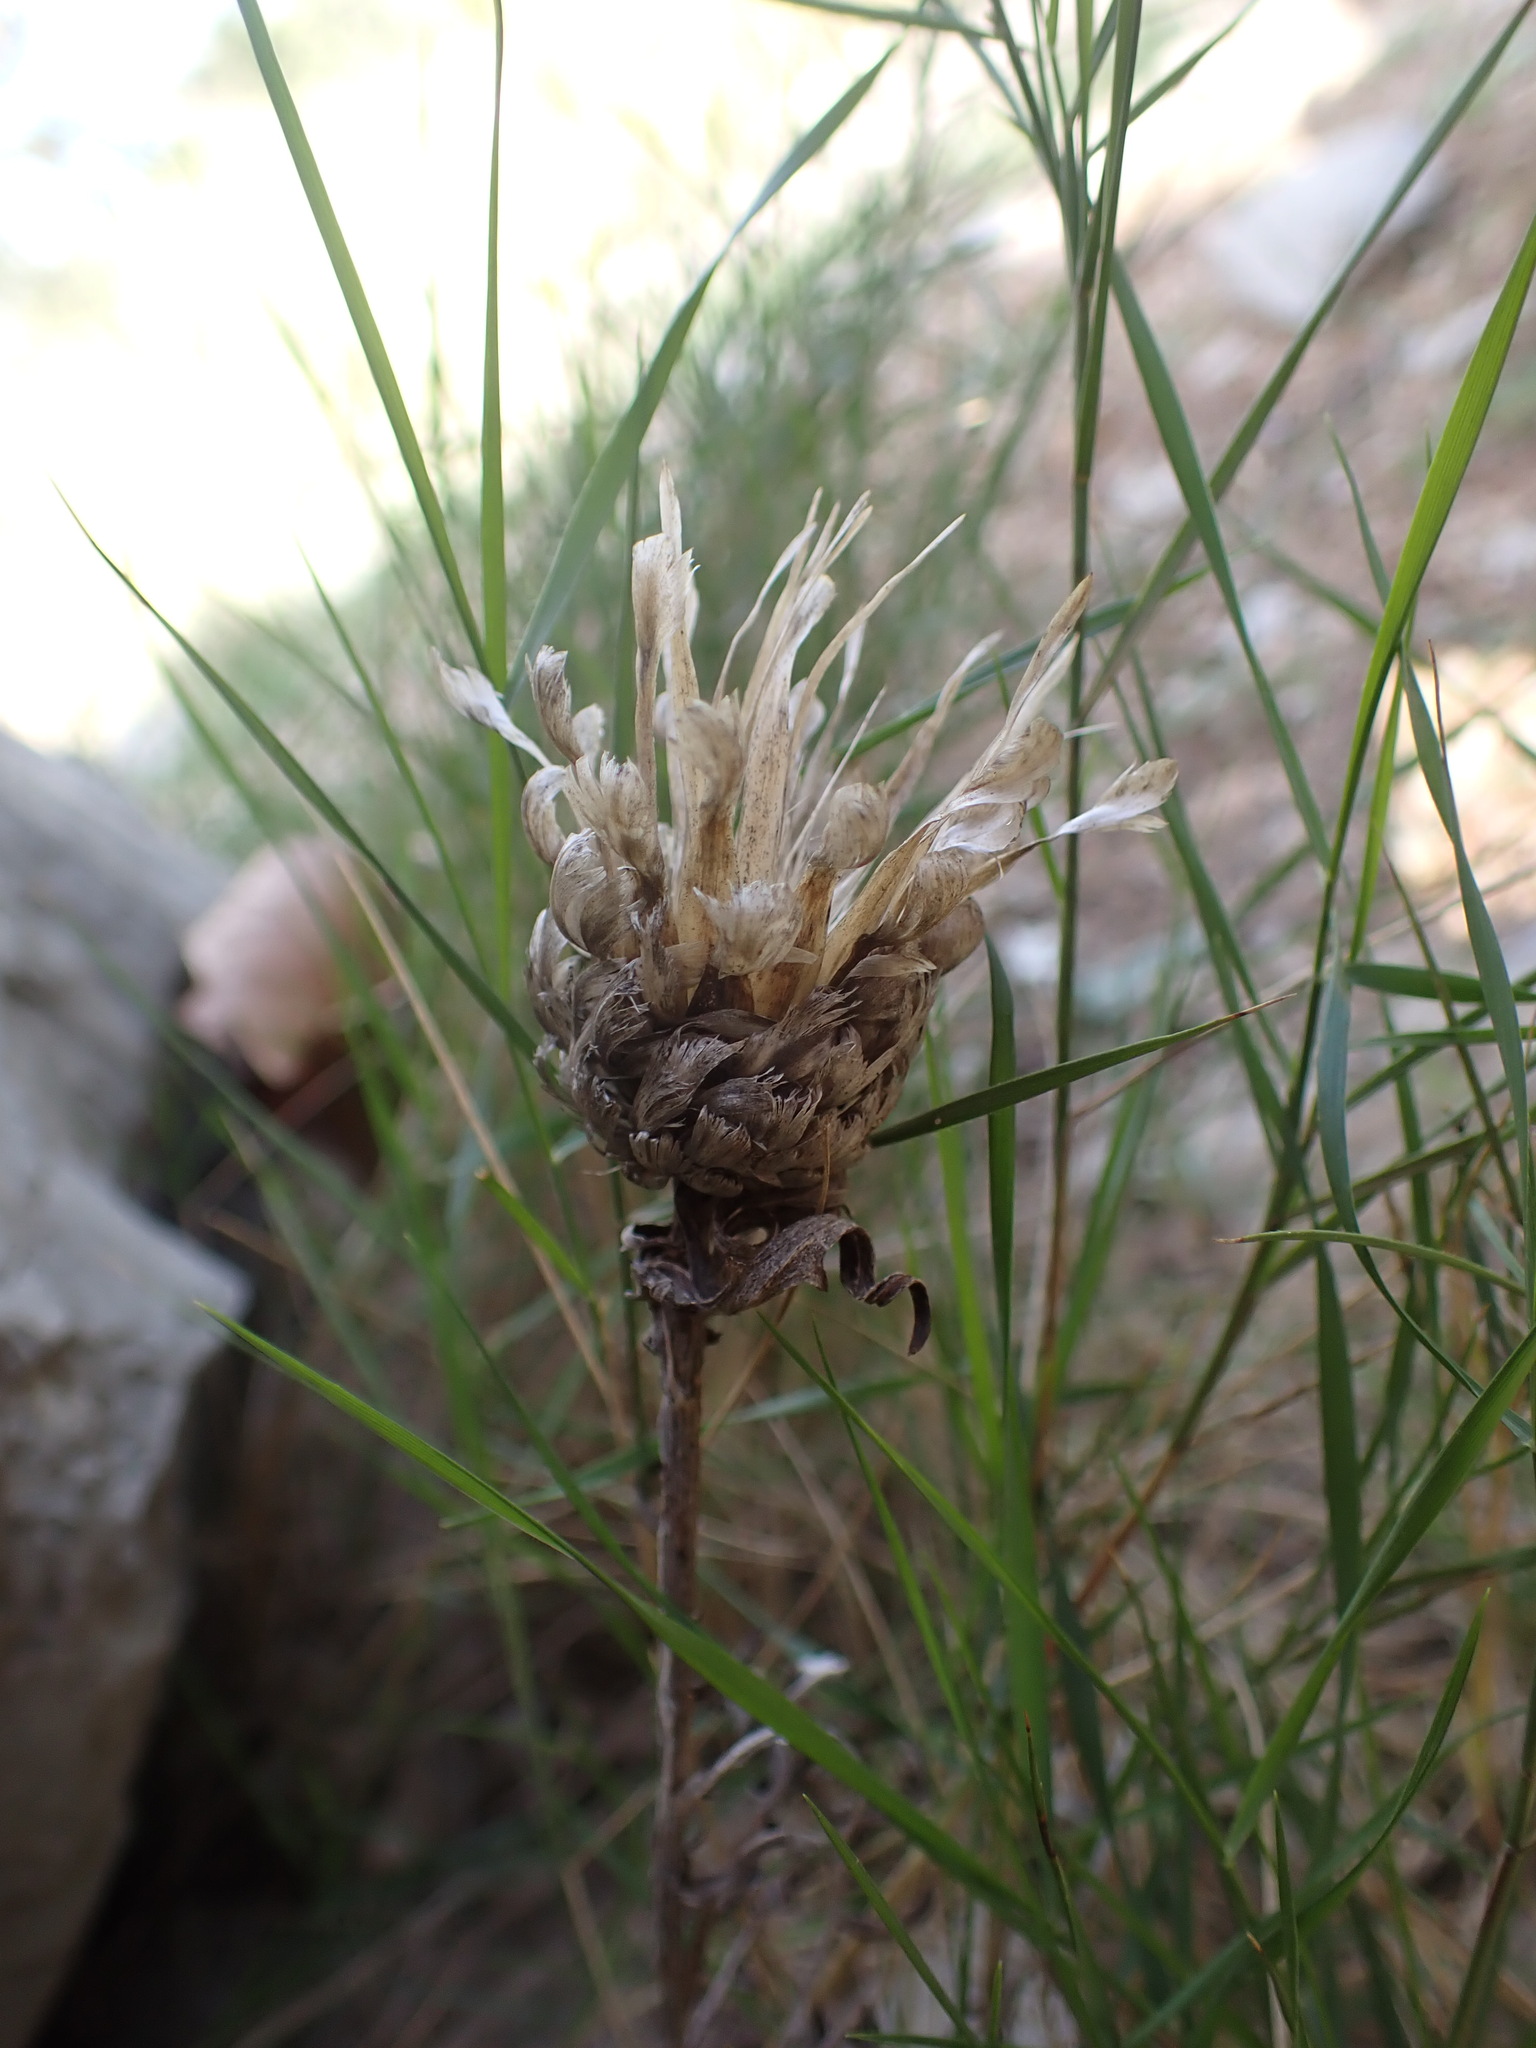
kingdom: Plantae
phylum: Tracheophyta
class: Magnoliopsida
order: Asterales
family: Asteraceae
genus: Leuzea
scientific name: Leuzea conifera
